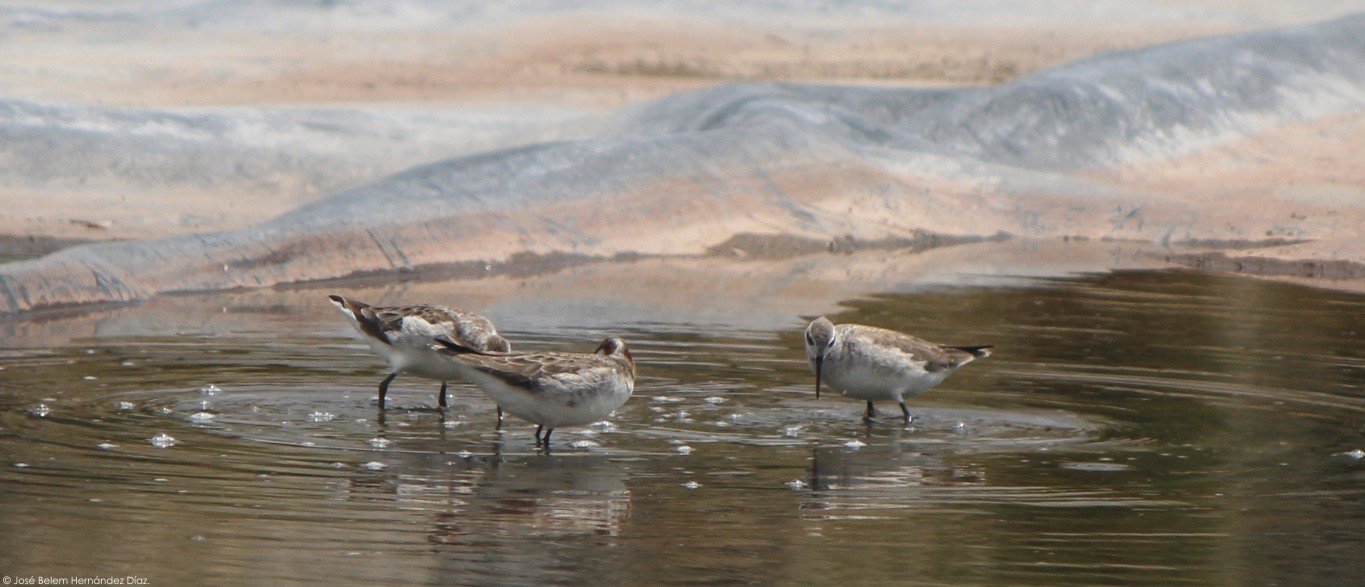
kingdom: Animalia
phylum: Chordata
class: Aves
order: Charadriiformes
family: Scolopacidae
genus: Phalaropus
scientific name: Phalaropus tricolor
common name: Wilson's phalarope
